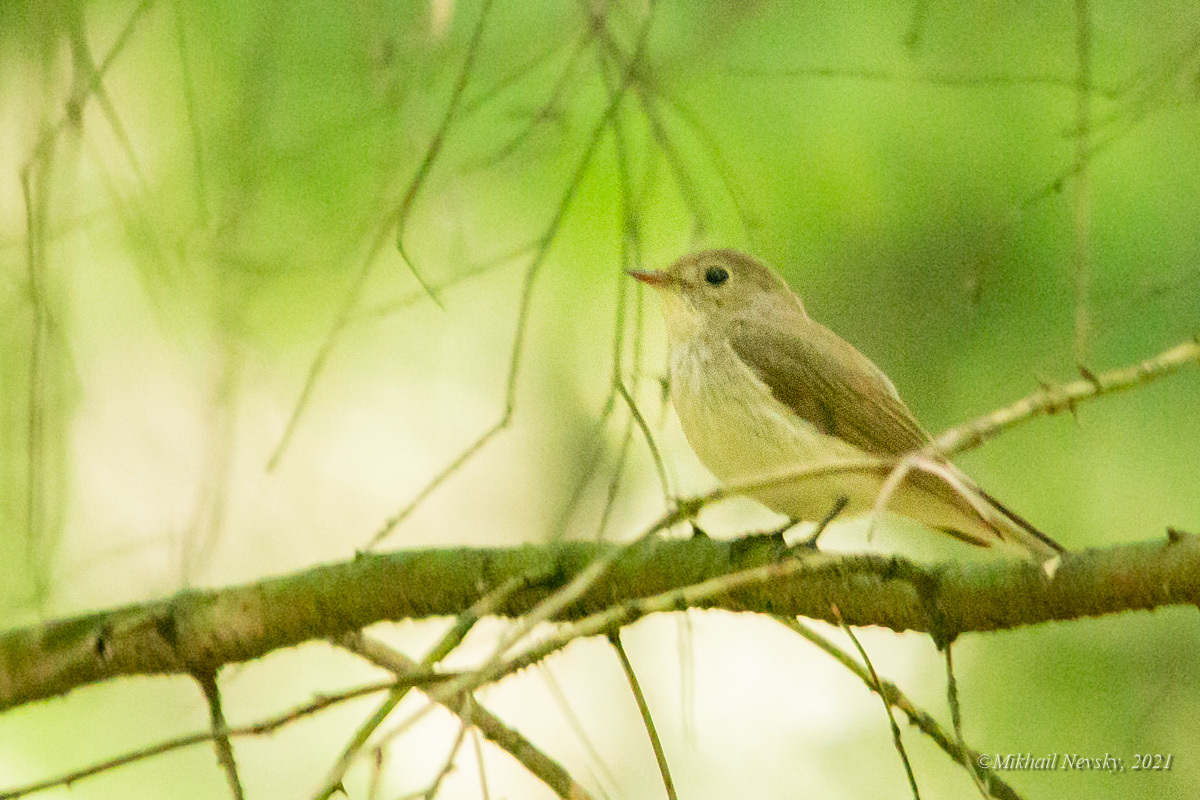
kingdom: Animalia
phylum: Chordata
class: Aves
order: Passeriformes
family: Muscicapidae
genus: Ficedula
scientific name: Ficedula parva
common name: Red-breasted flycatcher
